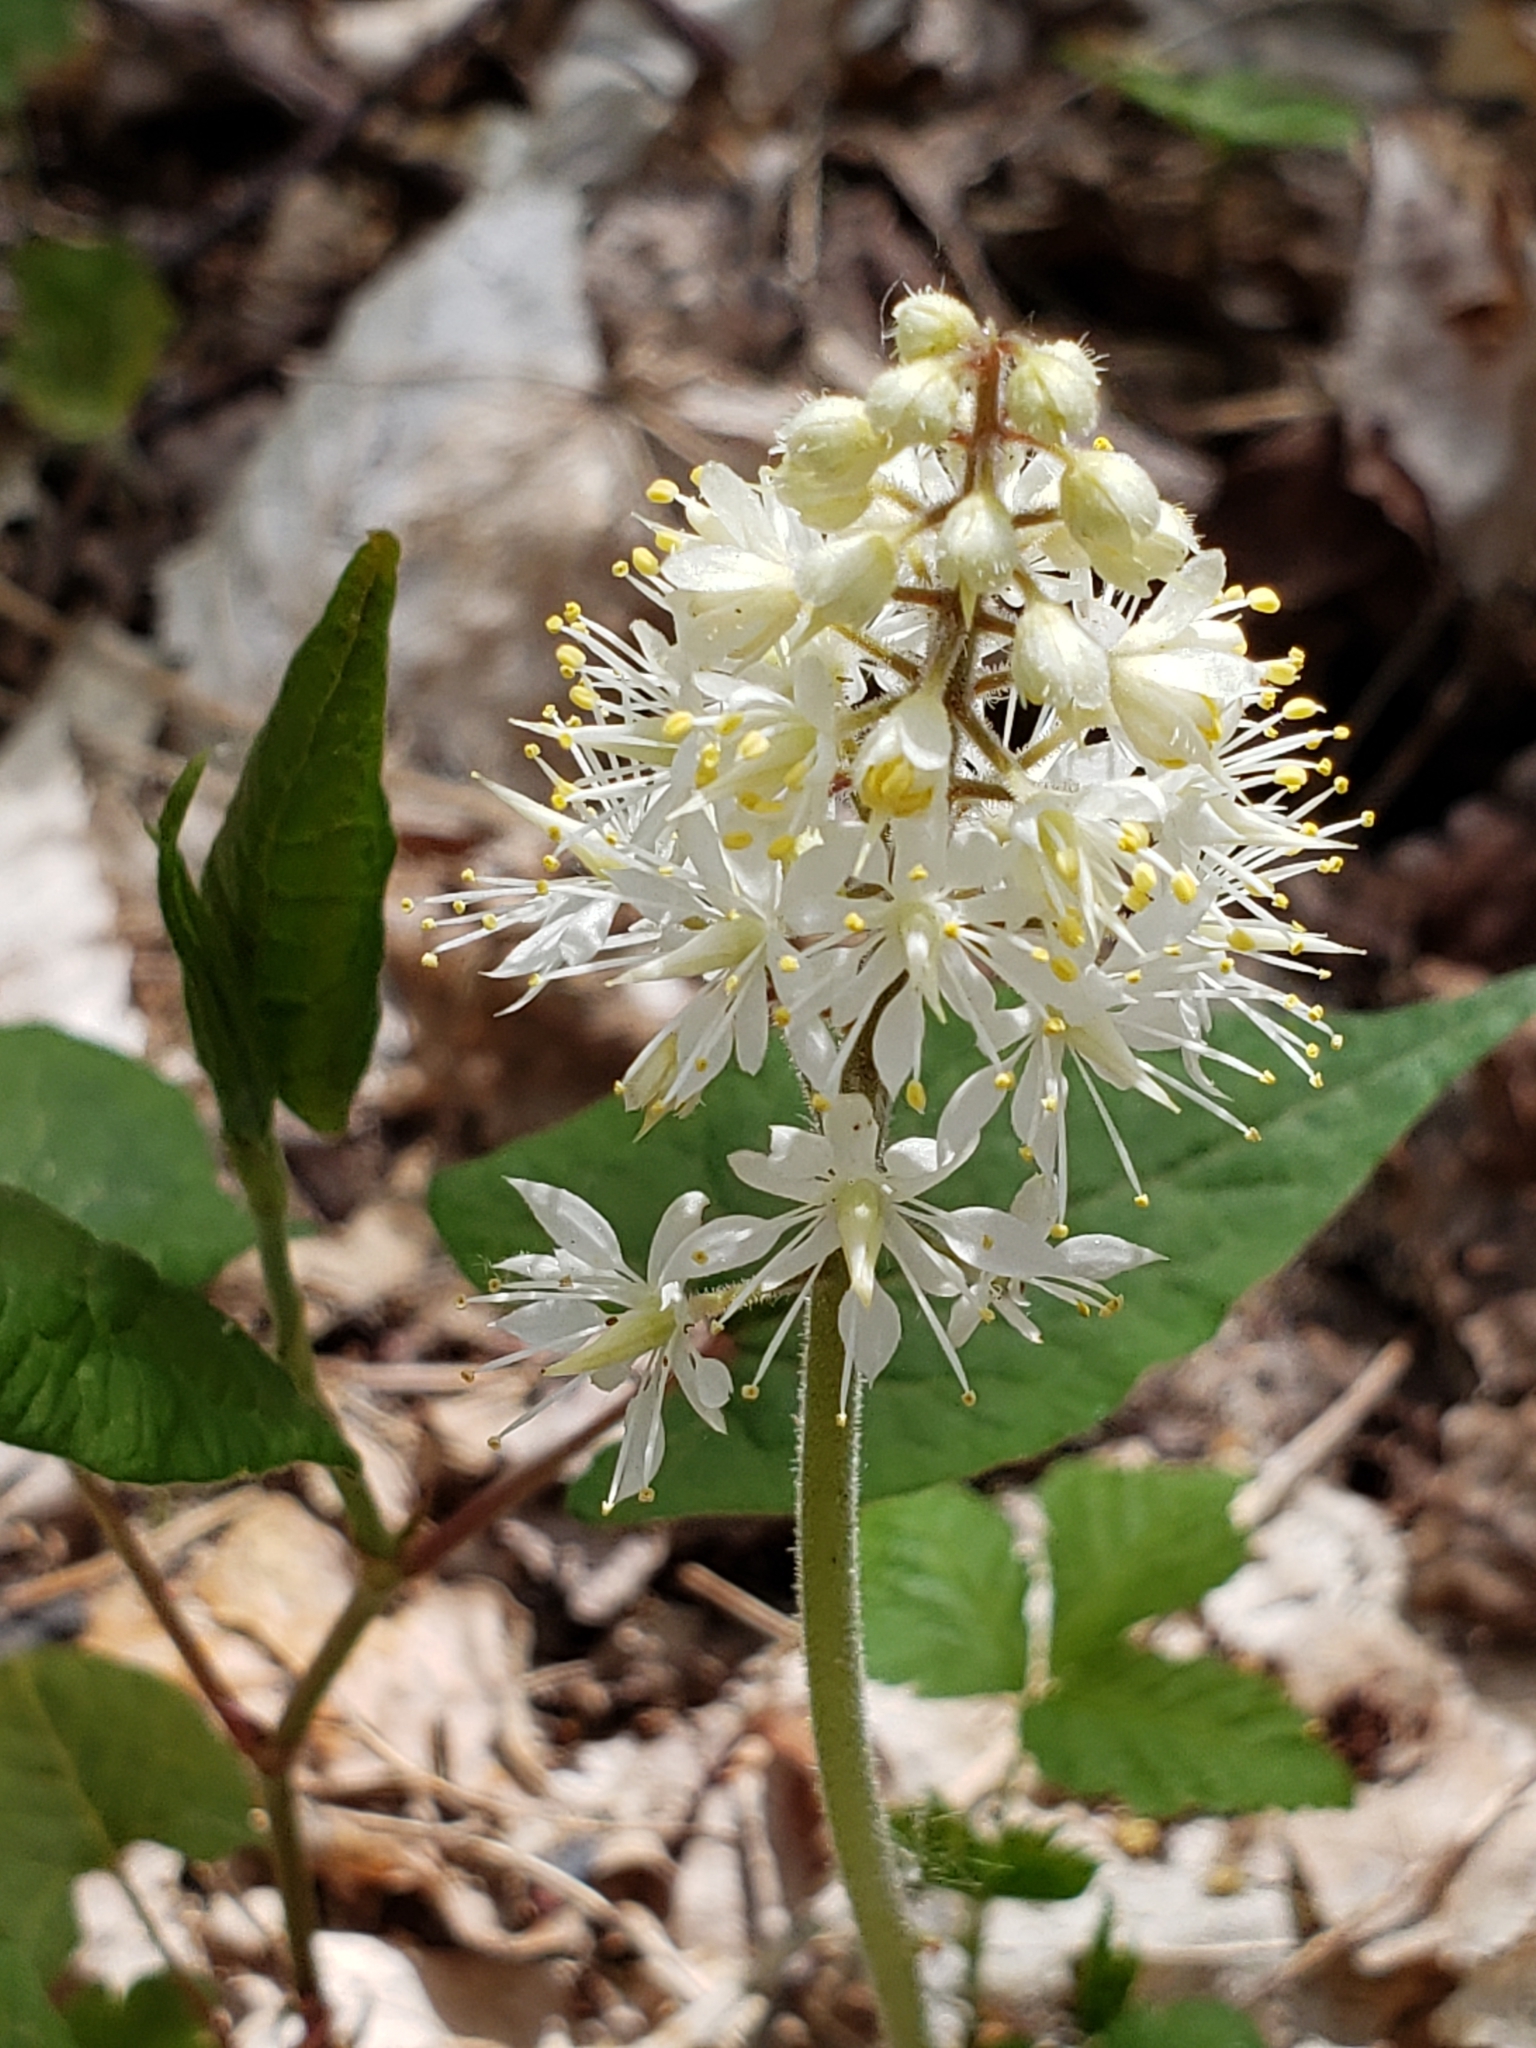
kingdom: Plantae
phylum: Tracheophyta
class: Magnoliopsida
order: Saxifragales
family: Saxifragaceae
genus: Tiarella
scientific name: Tiarella stolonifera
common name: Stoloniferous foamflower
